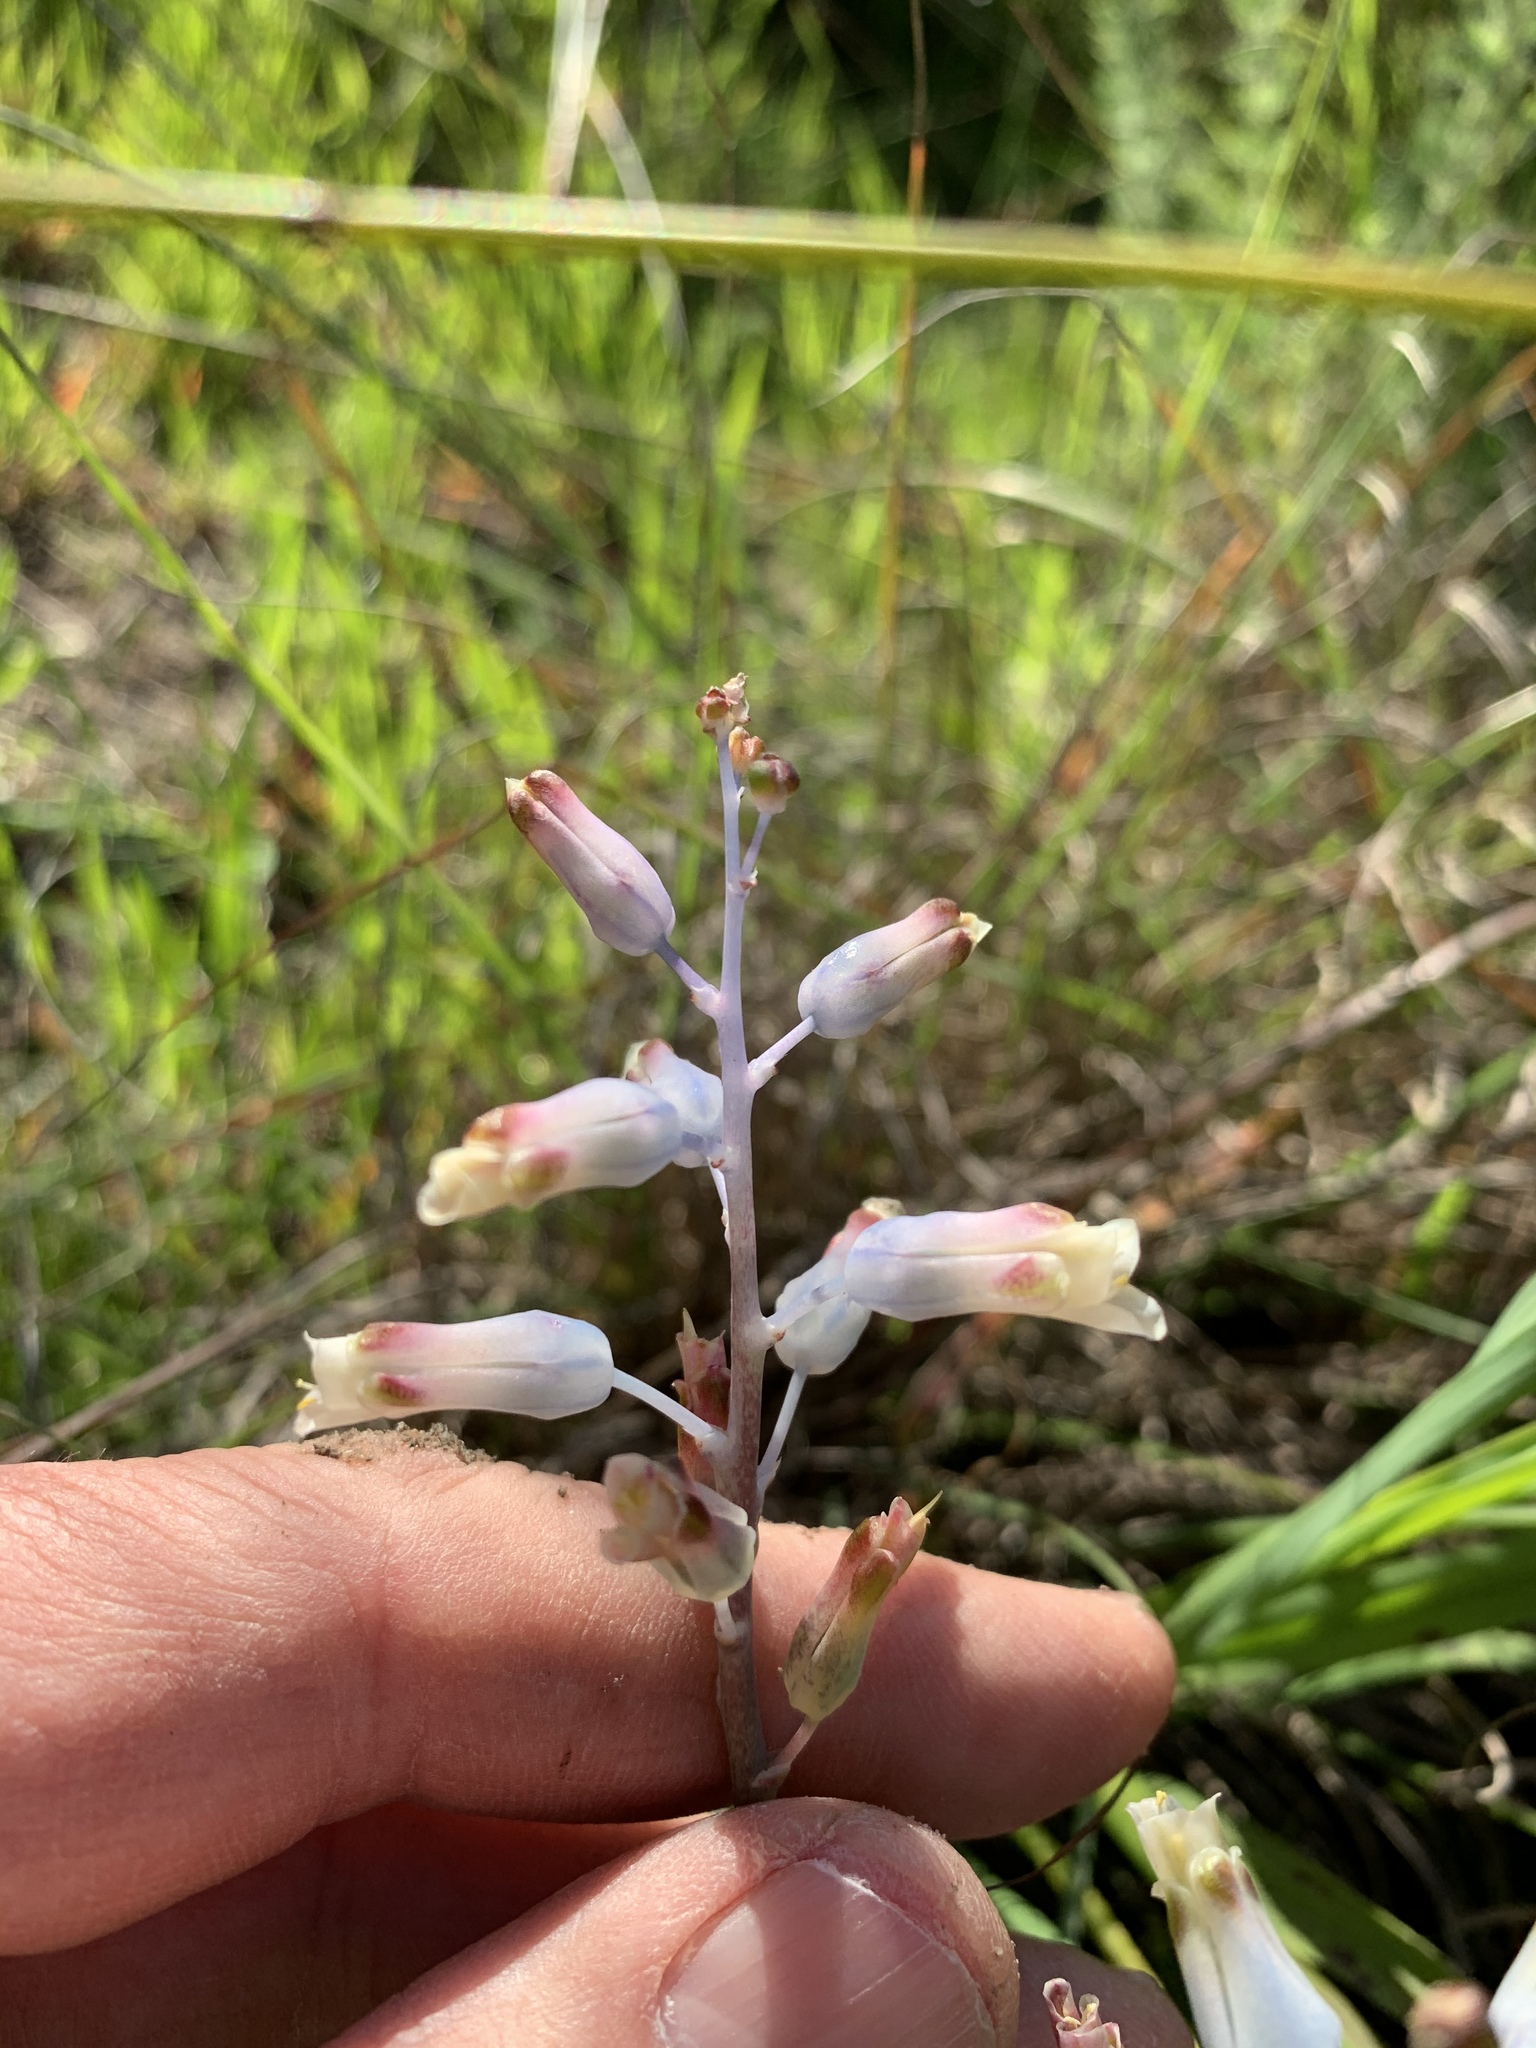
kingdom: Plantae
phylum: Tracheophyta
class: Liliopsida
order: Asparagales
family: Asparagaceae
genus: Lachenalia
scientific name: Lachenalia unifolia
